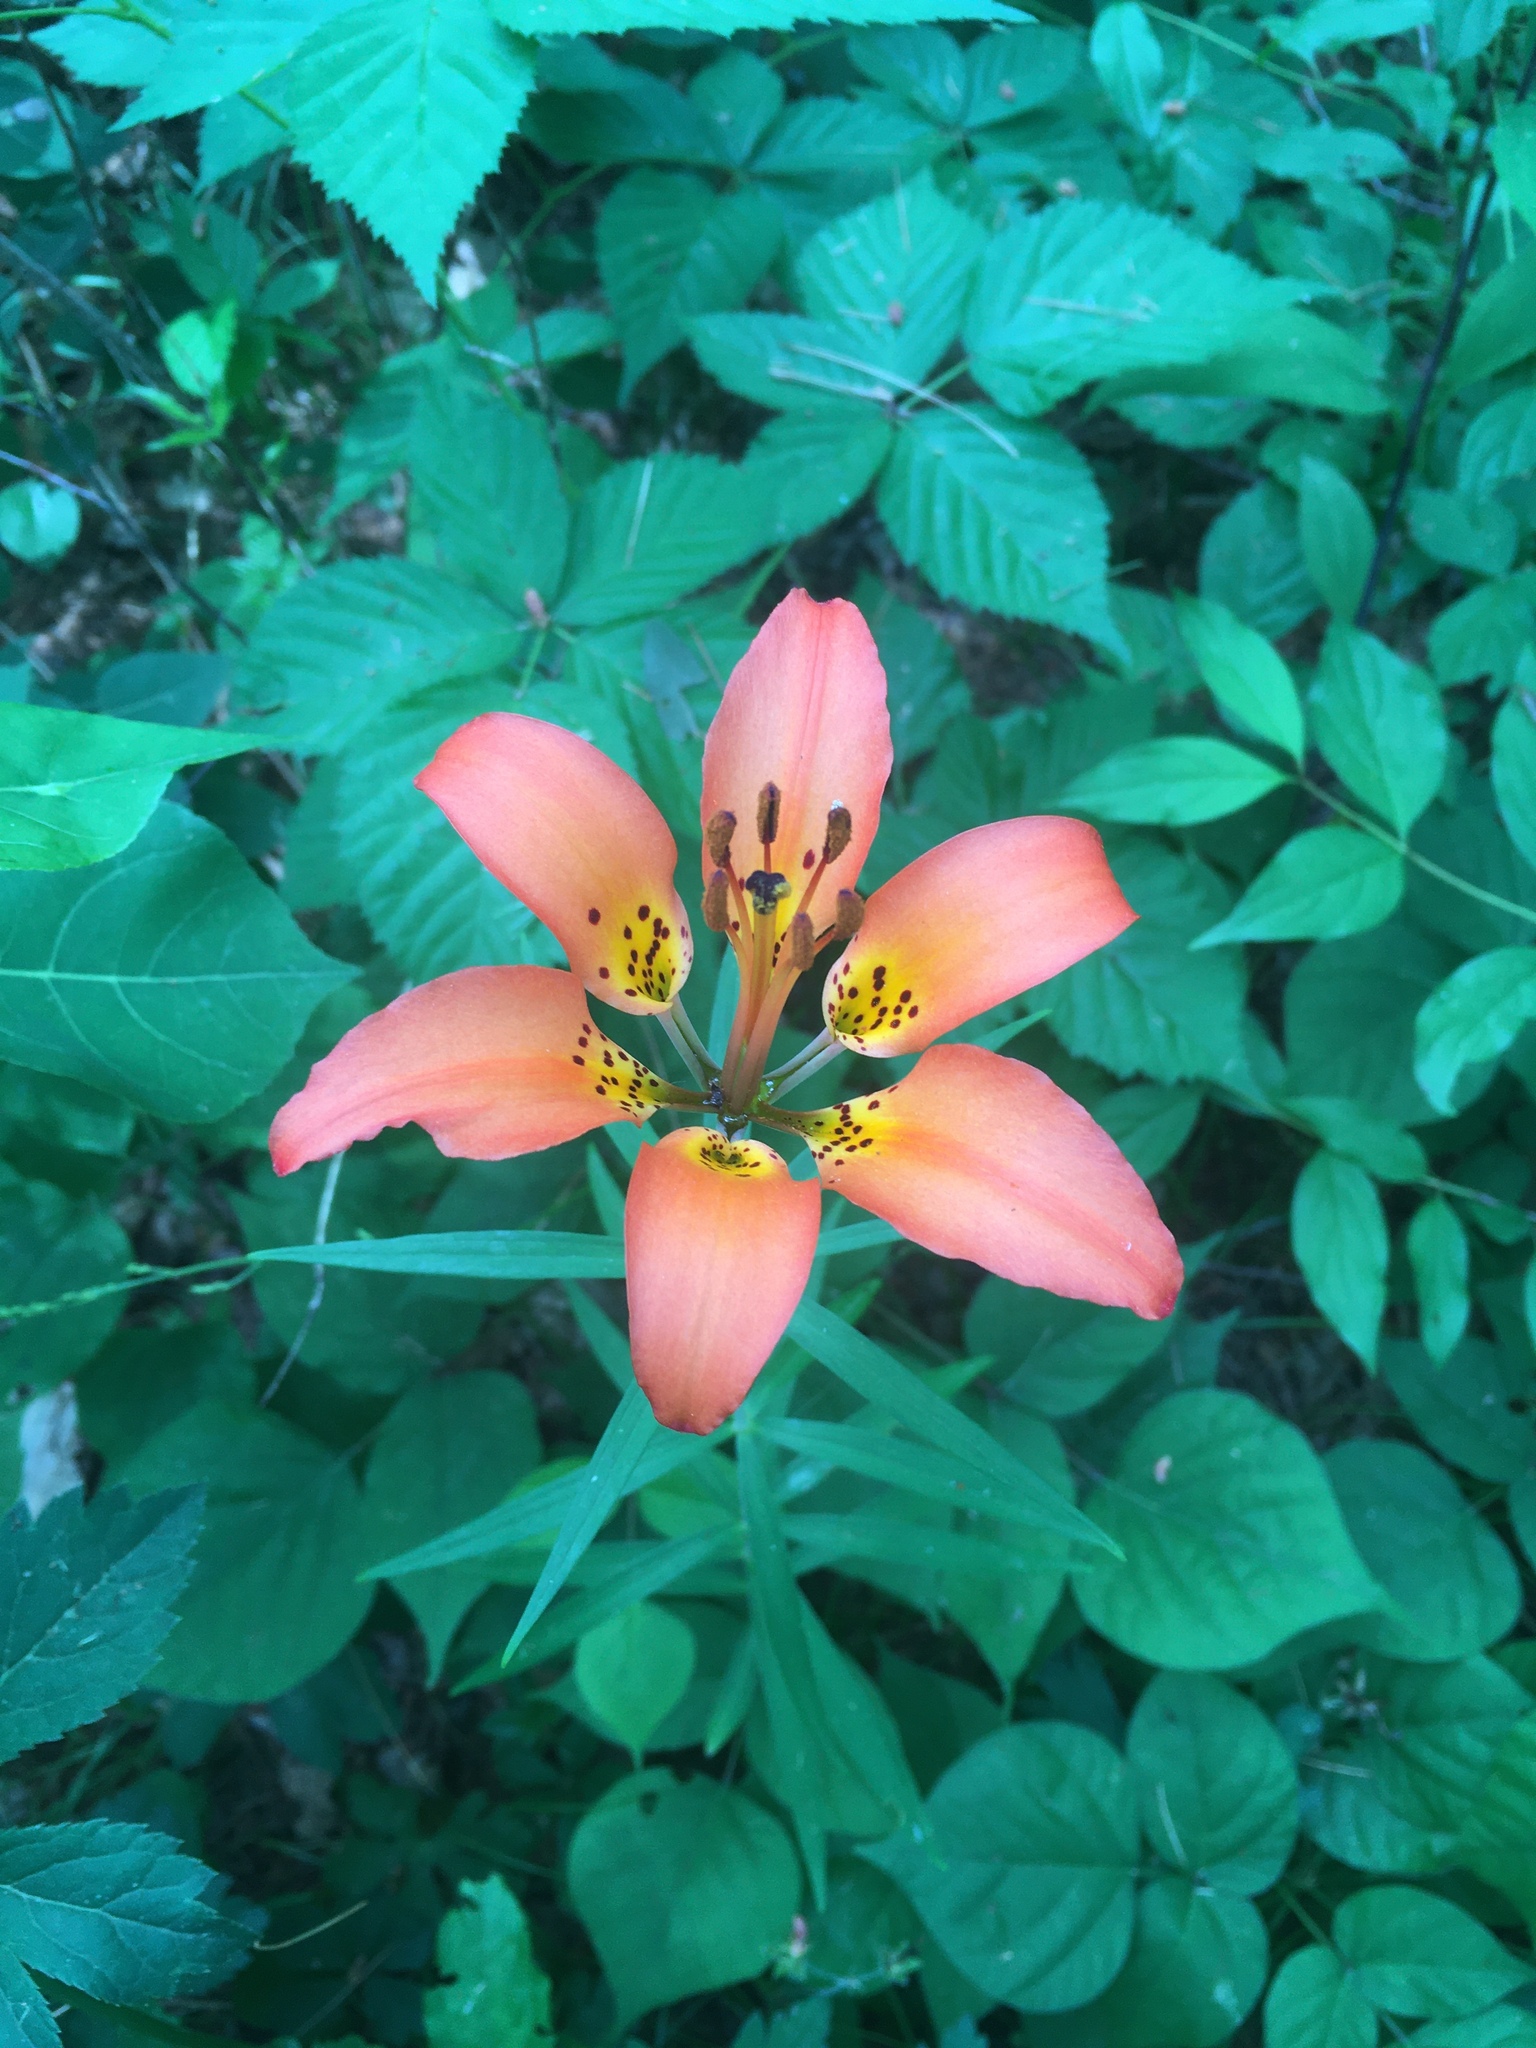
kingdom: Plantae
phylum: Tracheophyta
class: Liliopsida
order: Liliales
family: Liliaceae
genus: Lilium
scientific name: Lilium philadelphicum
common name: Red lily
